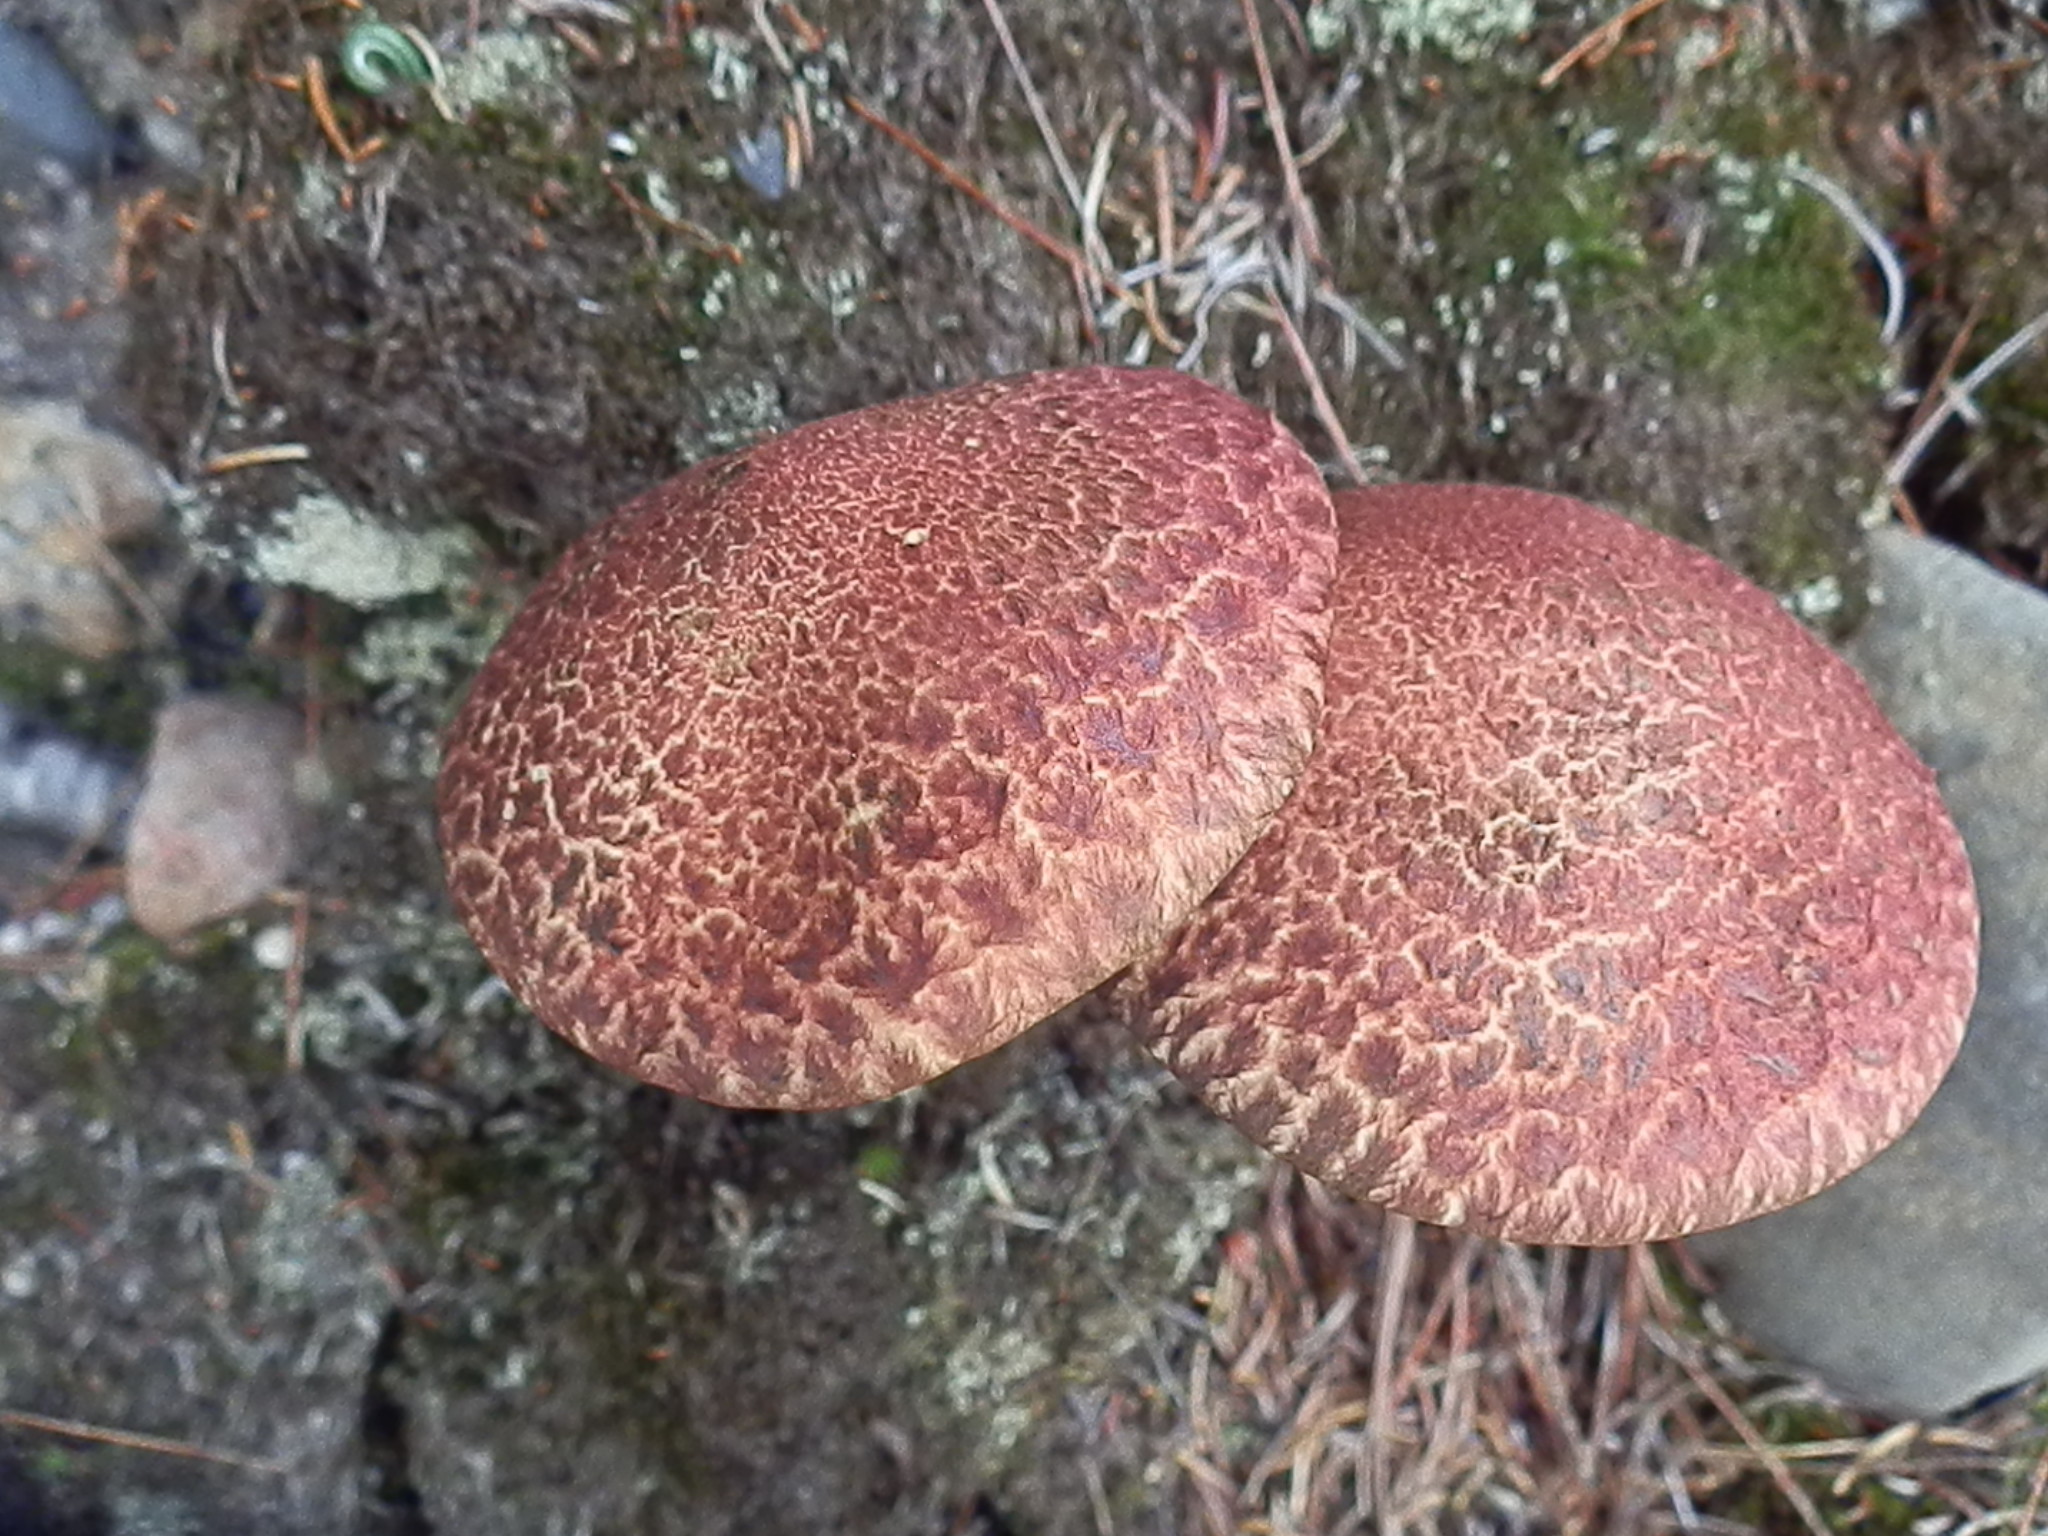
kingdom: Fungi
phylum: Basidiomycota
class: Agaricomycetes
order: Boletales
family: Suillaceae
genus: Suillus
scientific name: Suillus spraguei
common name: Painted suillus
